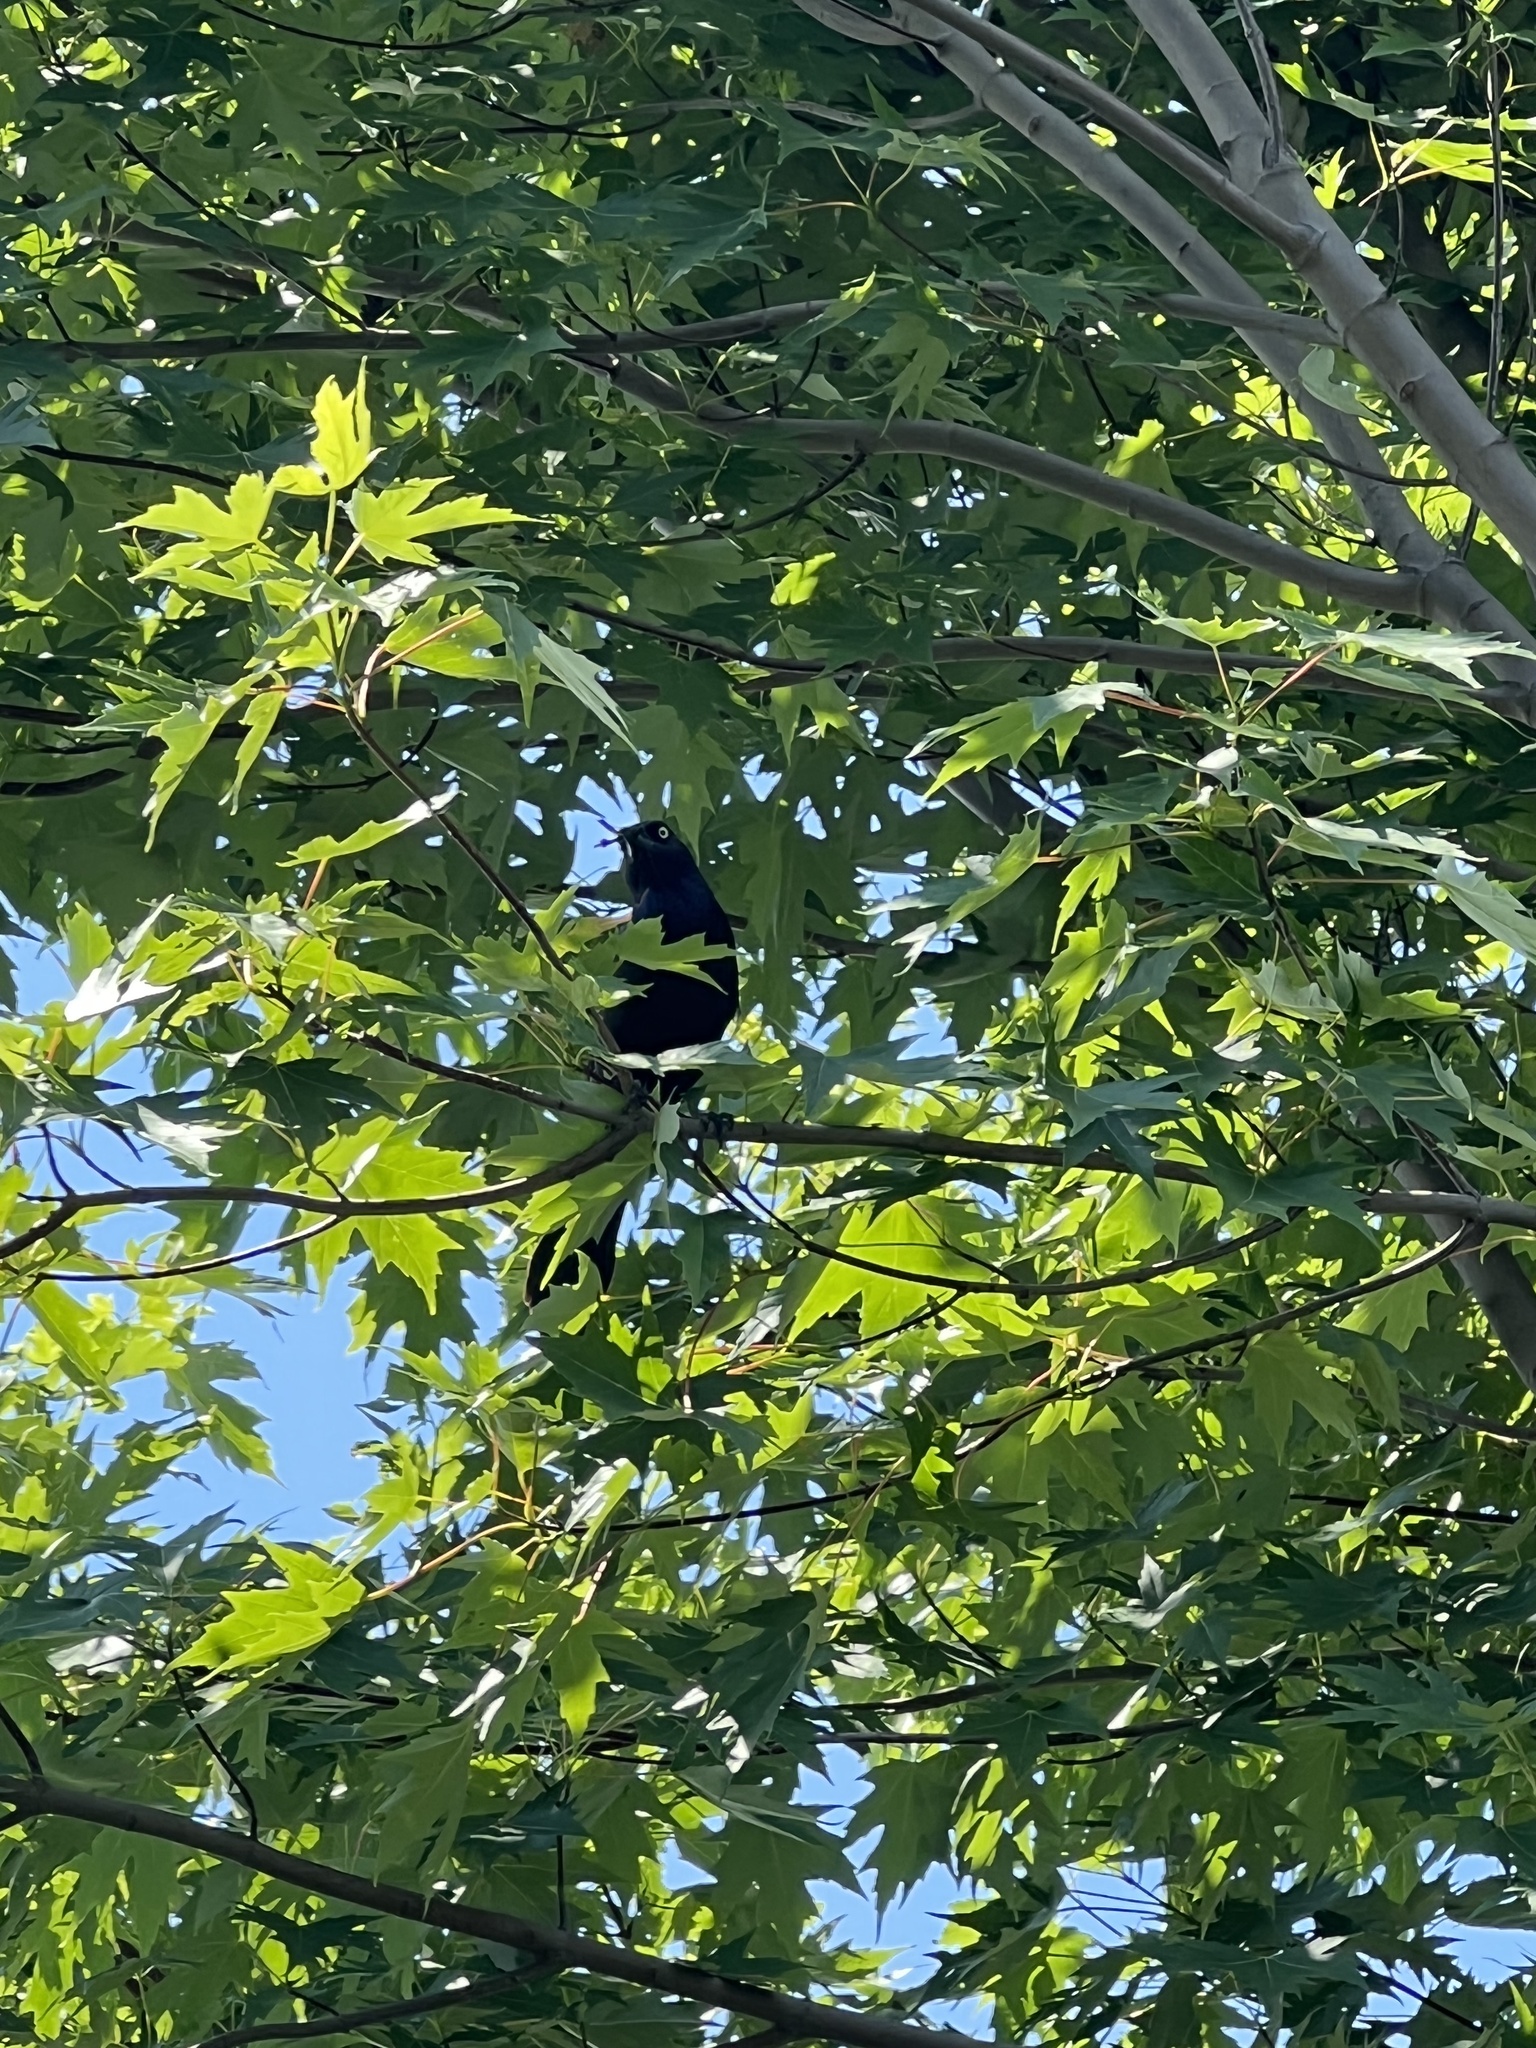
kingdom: Animalia
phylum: Chordata
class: Aves
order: Passeriformes
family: Icteridae
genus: Quiscalus
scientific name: Quiscalus quiscula
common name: Common grackle
